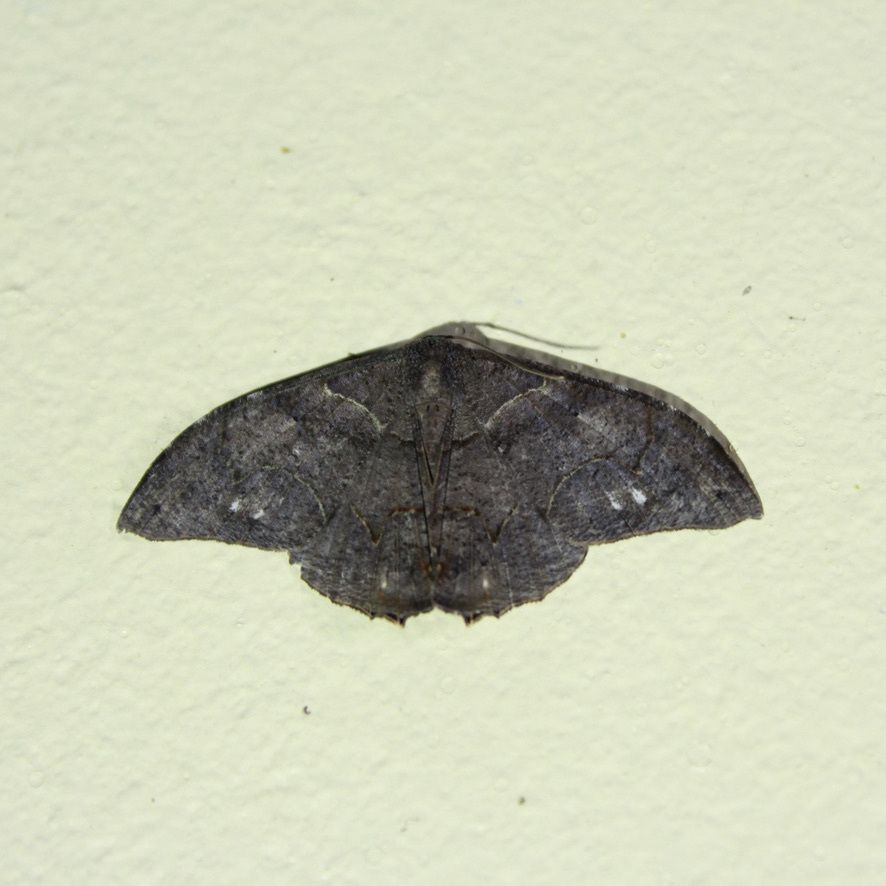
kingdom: Animalia
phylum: Arthropoda
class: Insecta
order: Lepidoptera
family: Uraniidae
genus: Syngria
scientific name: Syngria druidaria
